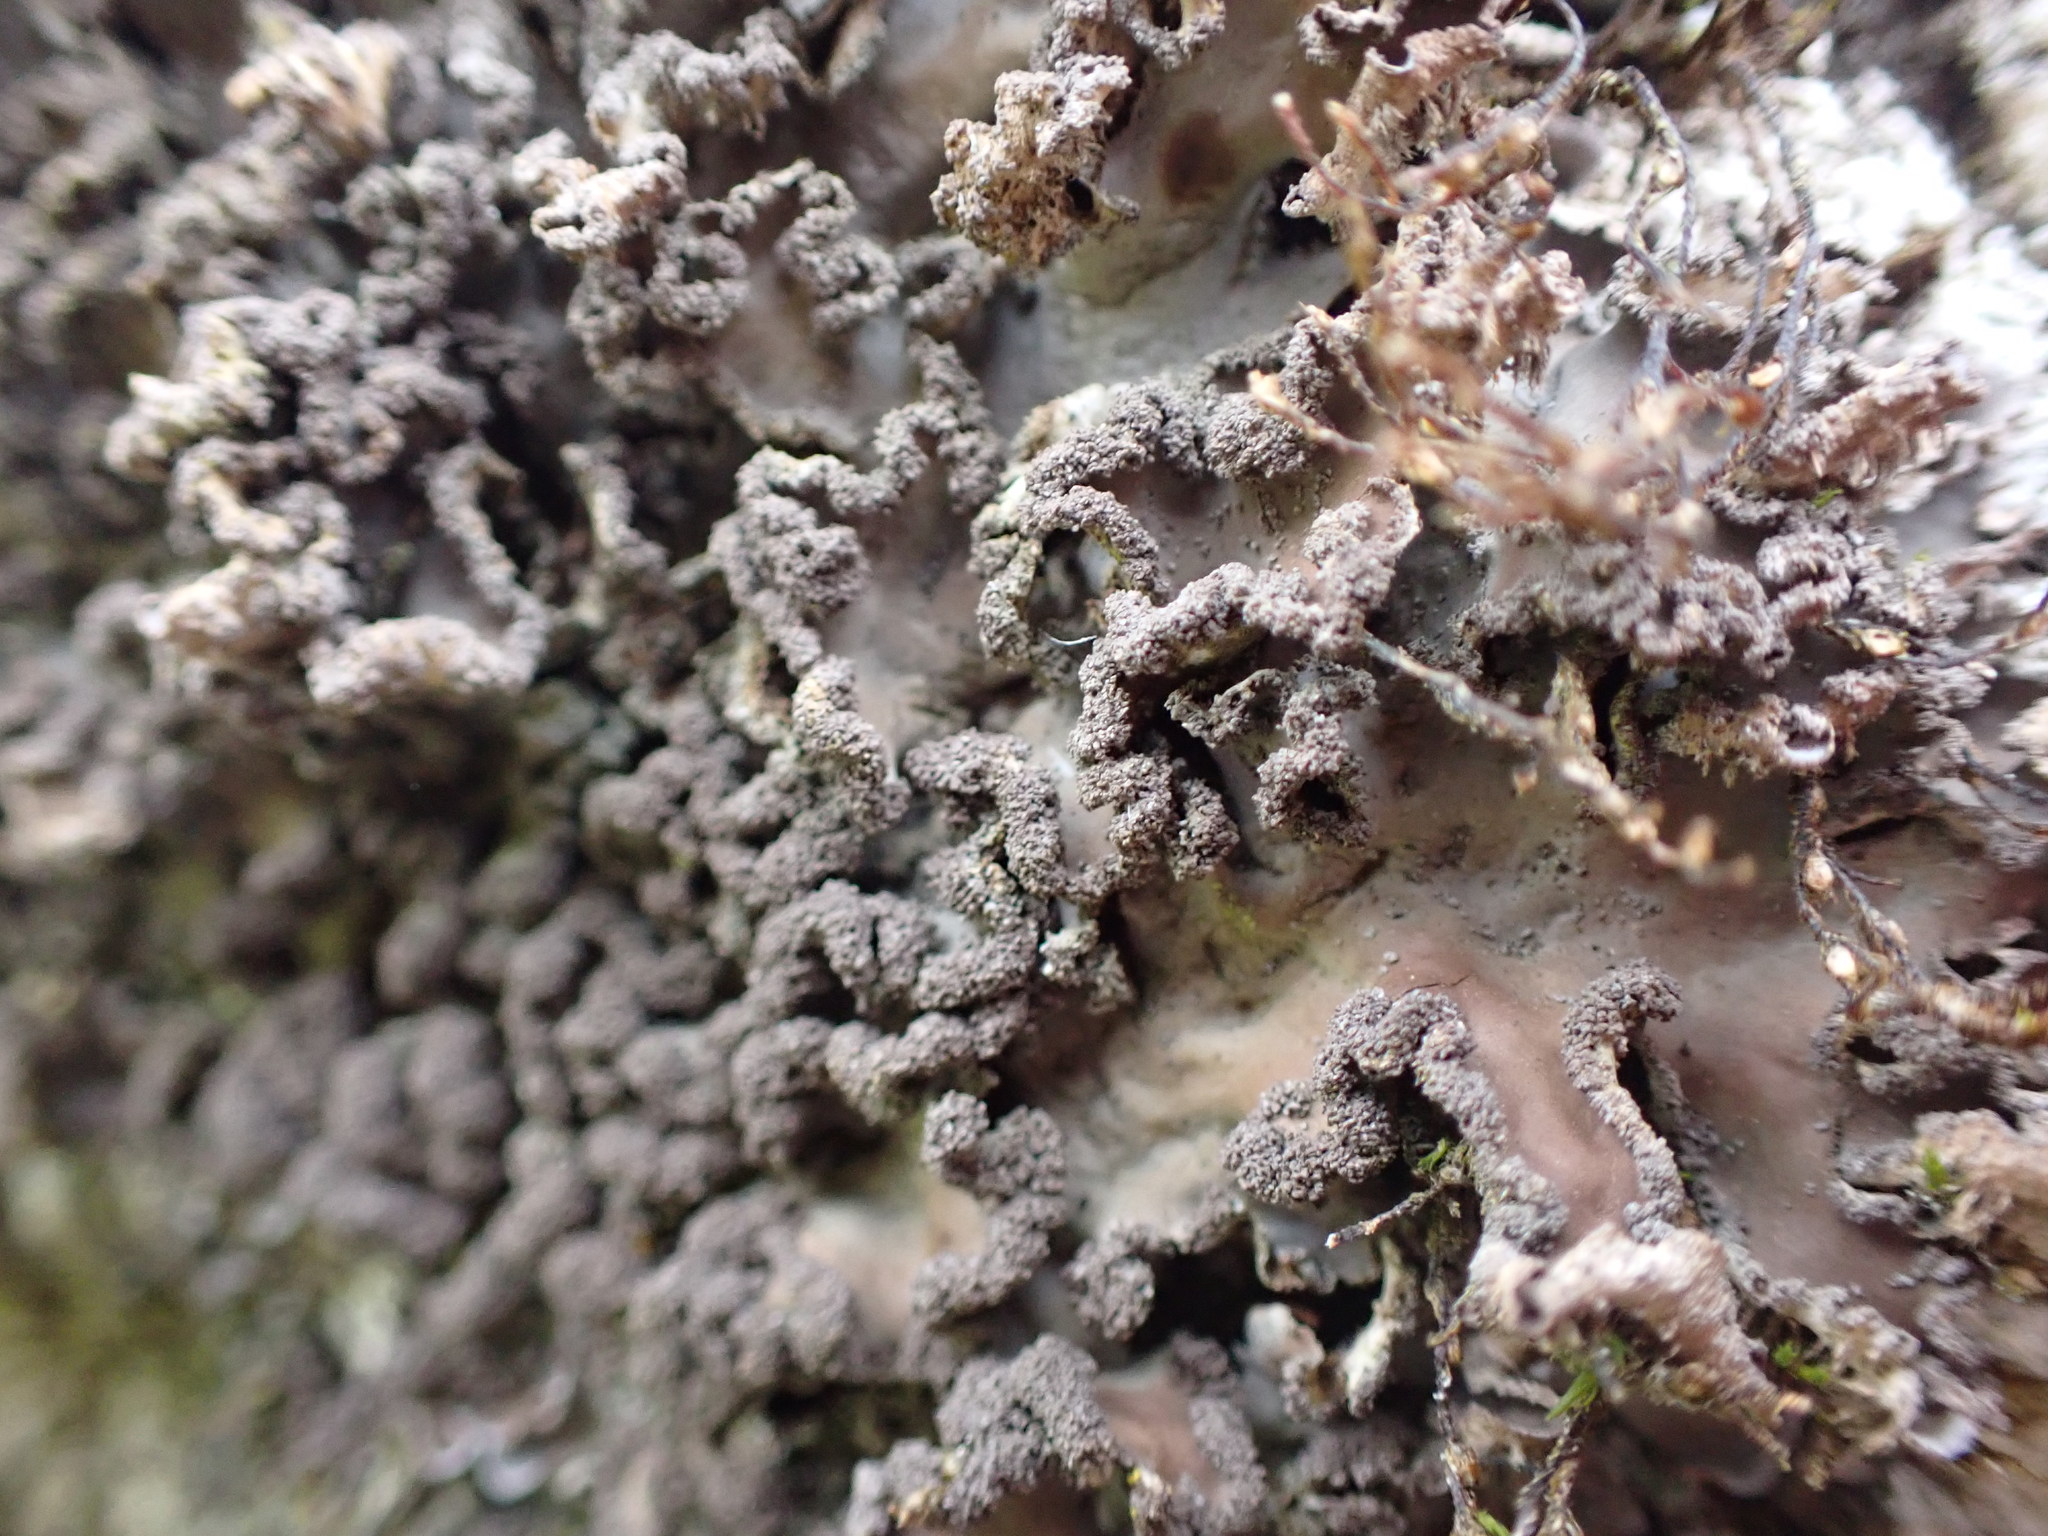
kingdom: Fungi
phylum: Ascomycota
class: Lecanoromycetes
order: Peltigerales
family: Peltigeraceae
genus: Peltigera
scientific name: Peltigera collina
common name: Gritty tree pelt lichen
